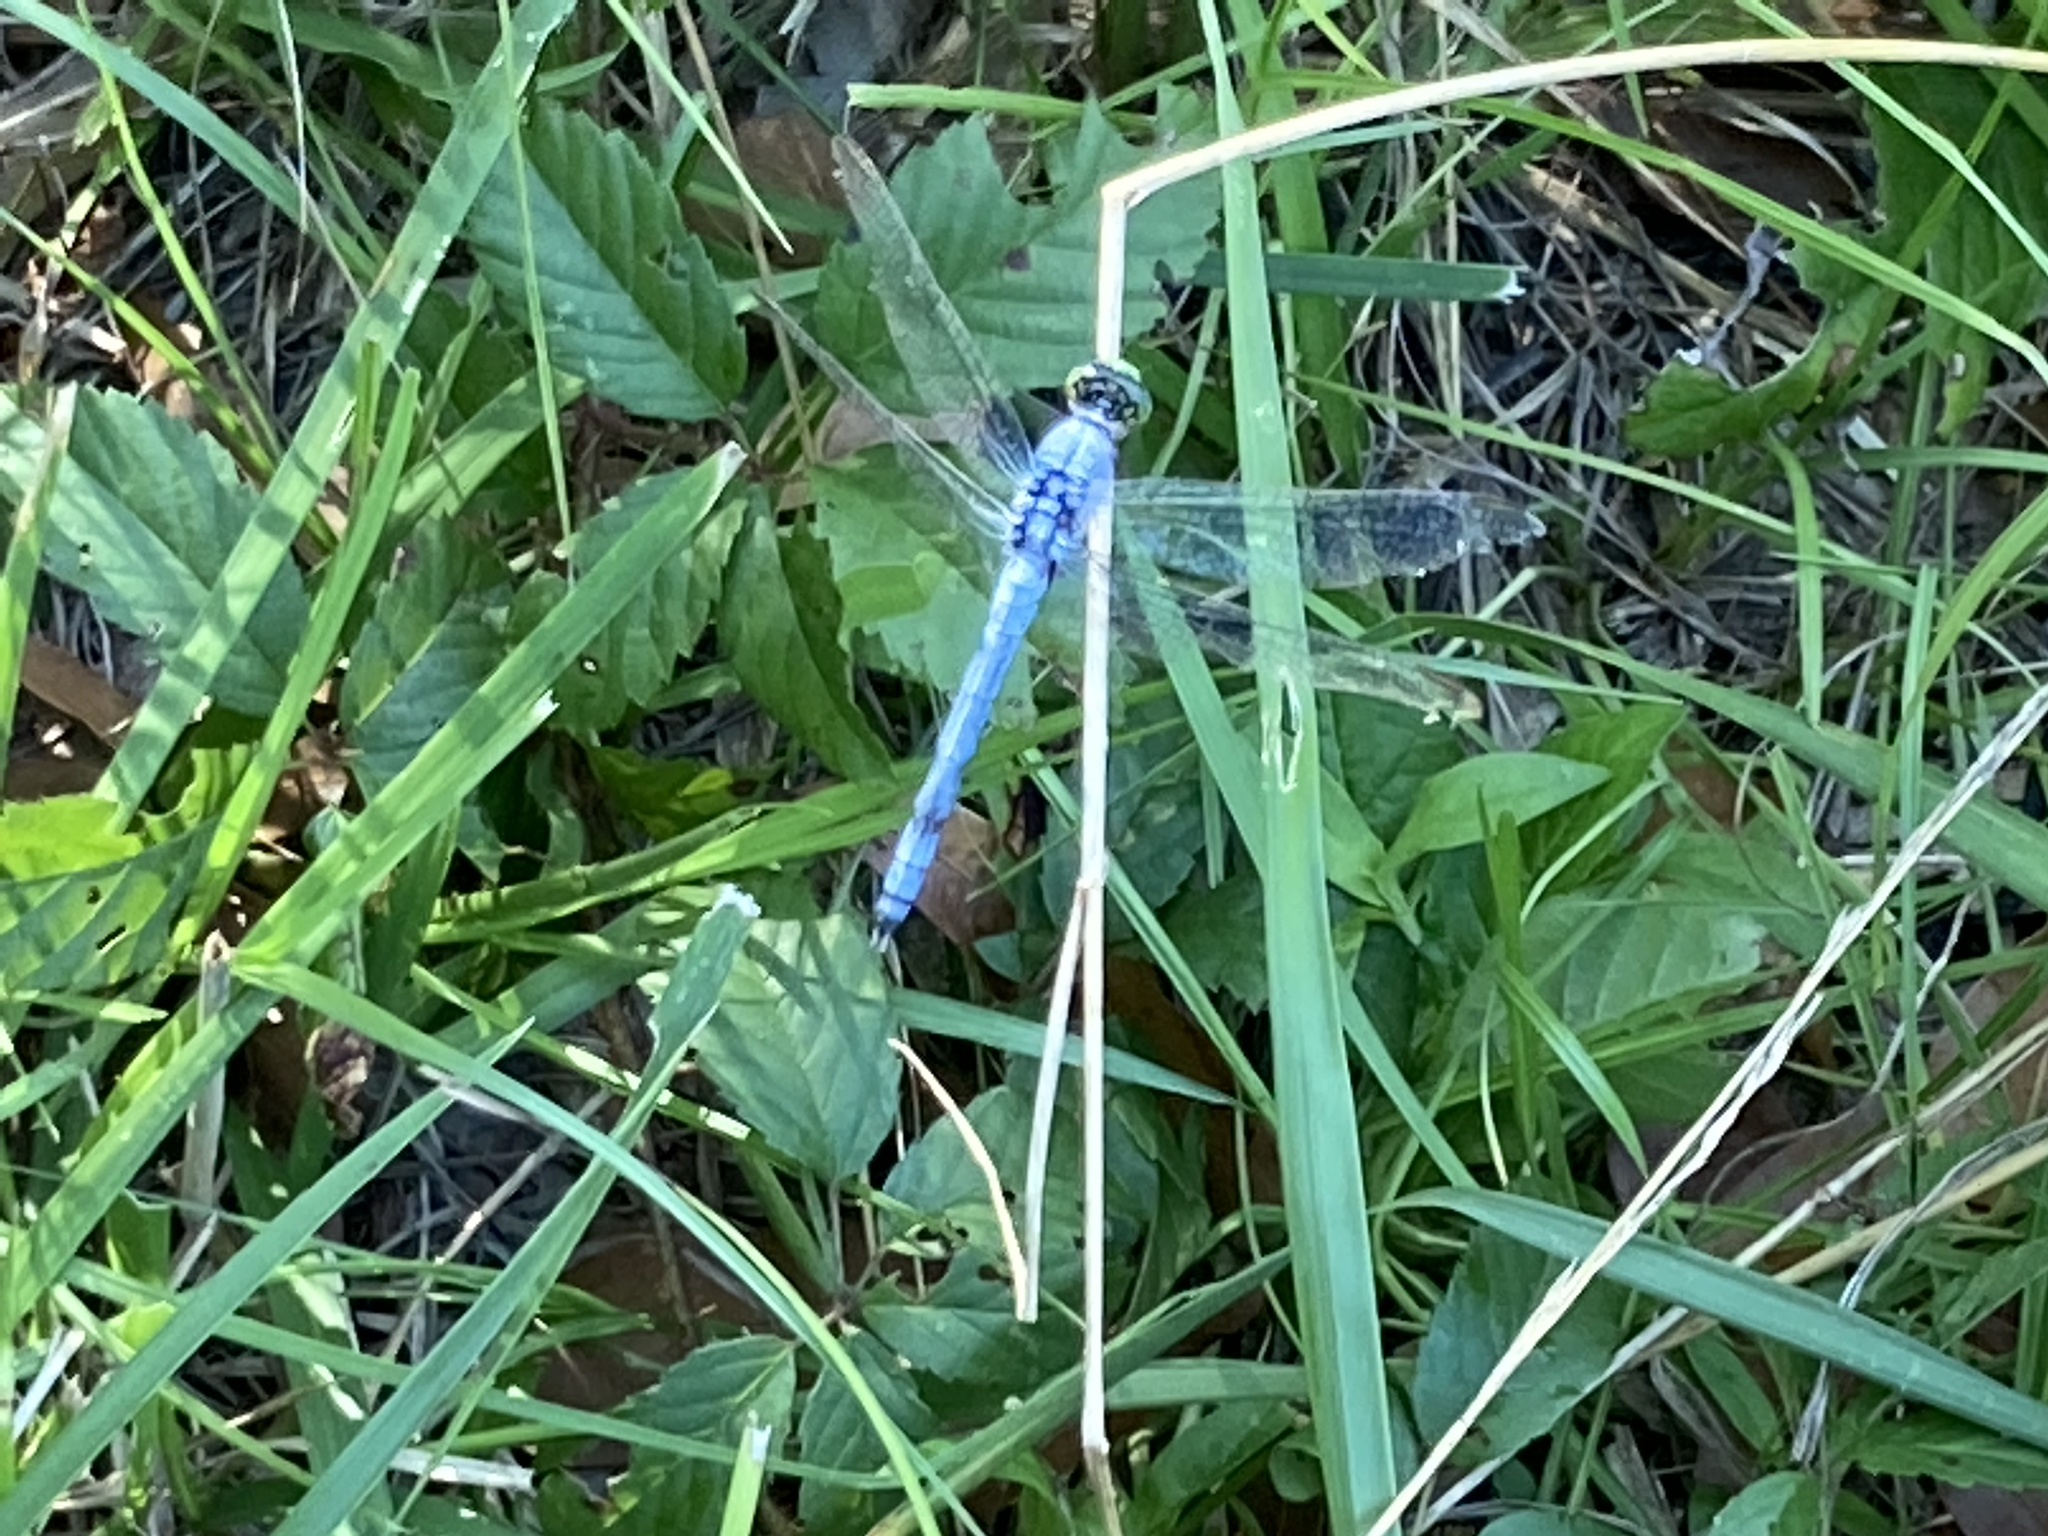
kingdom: Animalia
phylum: Arthropoda
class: Insecta
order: Odonata
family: Libellulidae
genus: Erythemis
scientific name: Erythemis simplicicollis
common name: Eastern pondhawk
